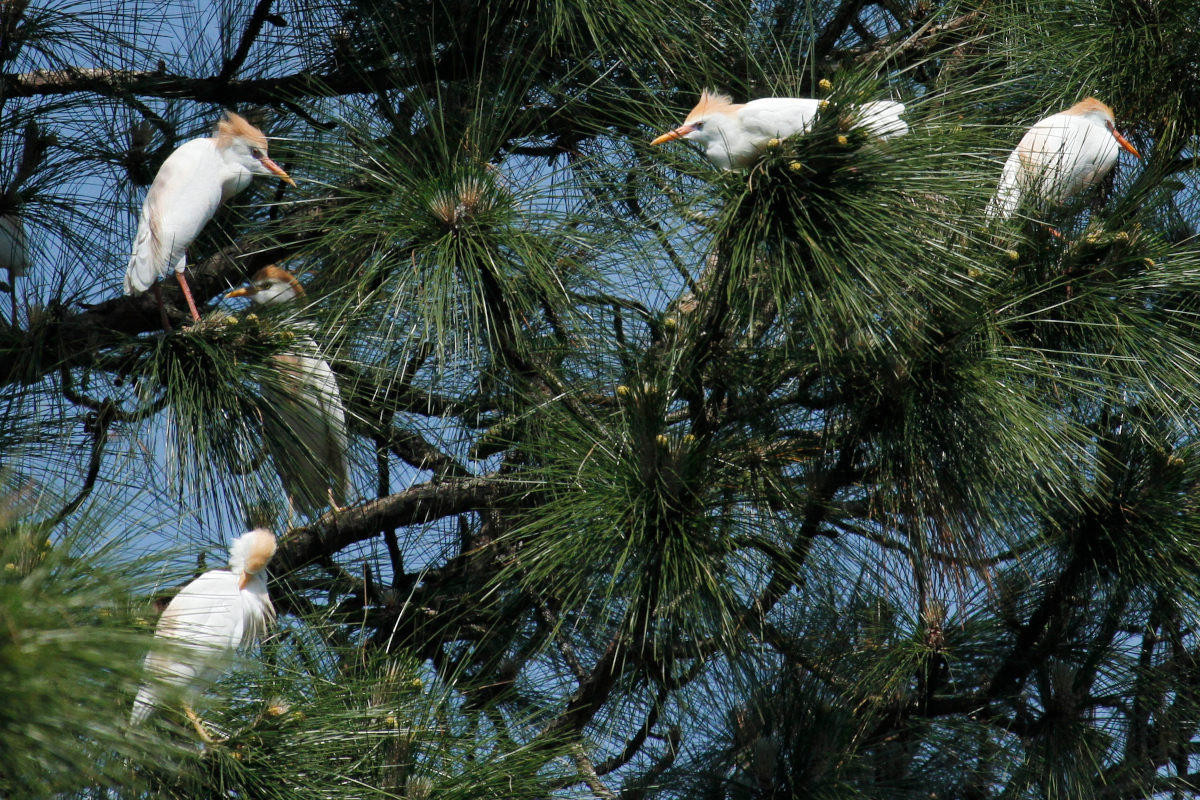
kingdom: Animalia
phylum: Chordata
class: Aves
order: Pelecaniformes
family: Ardeidae
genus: Bubulcus
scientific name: Bubulcus ibis
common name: Cattle egret
